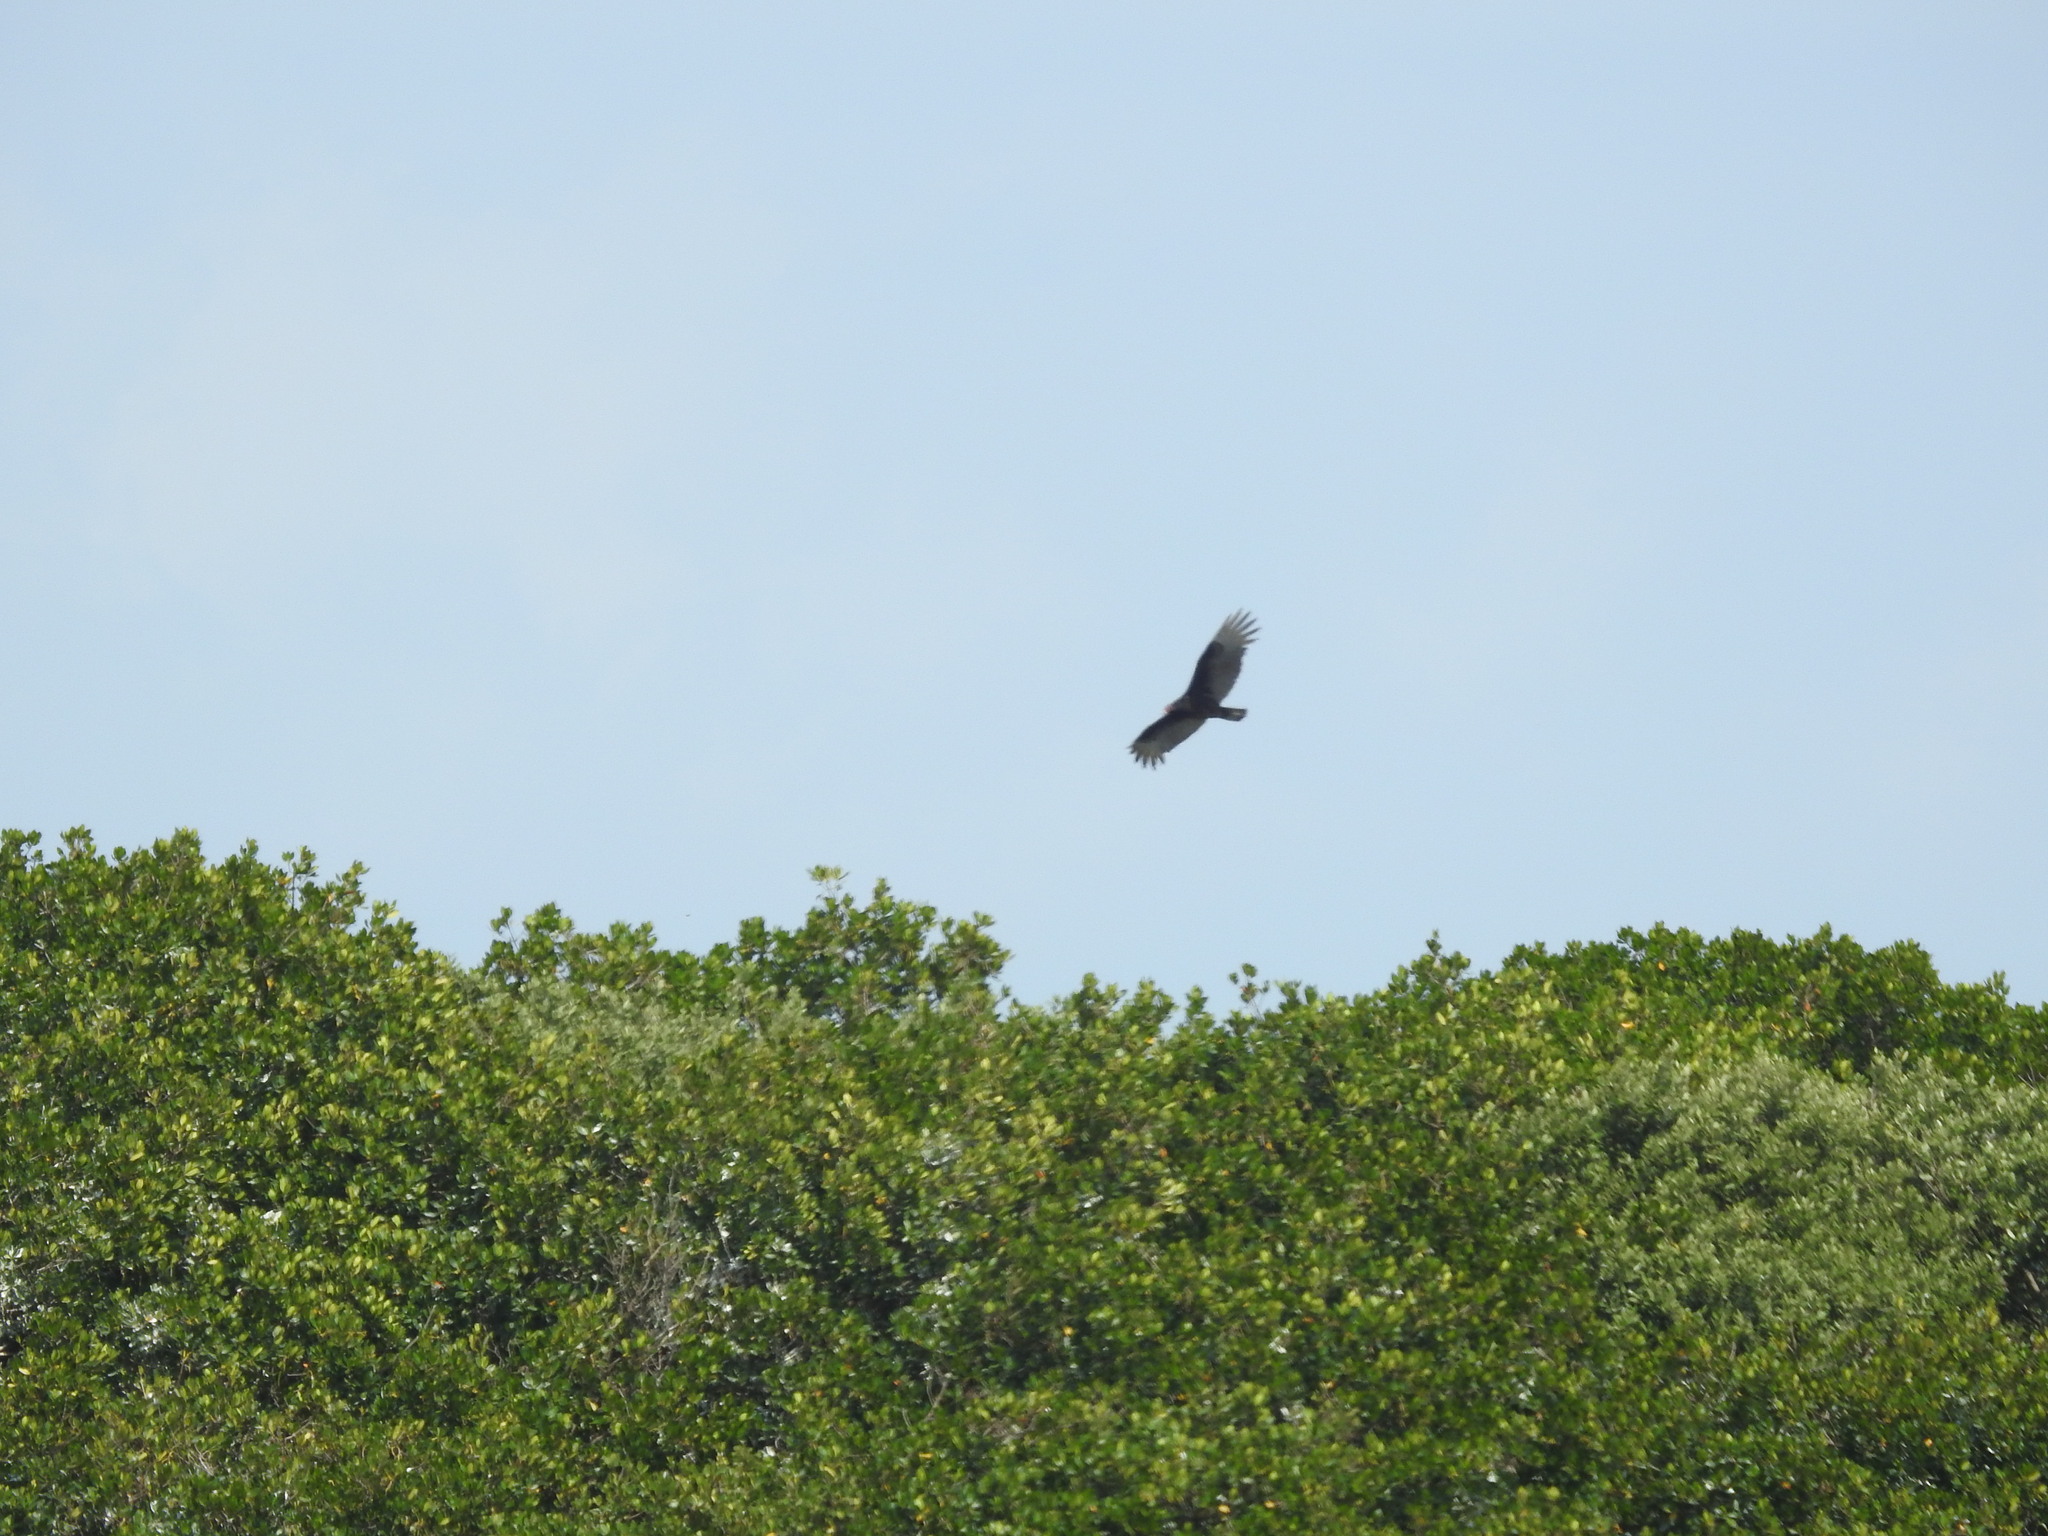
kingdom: Animalia
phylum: Chordata
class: Aves
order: Accipitriformes
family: Cathartidae
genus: Cathartes
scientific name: Cathartes aura
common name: Turkey vulture
